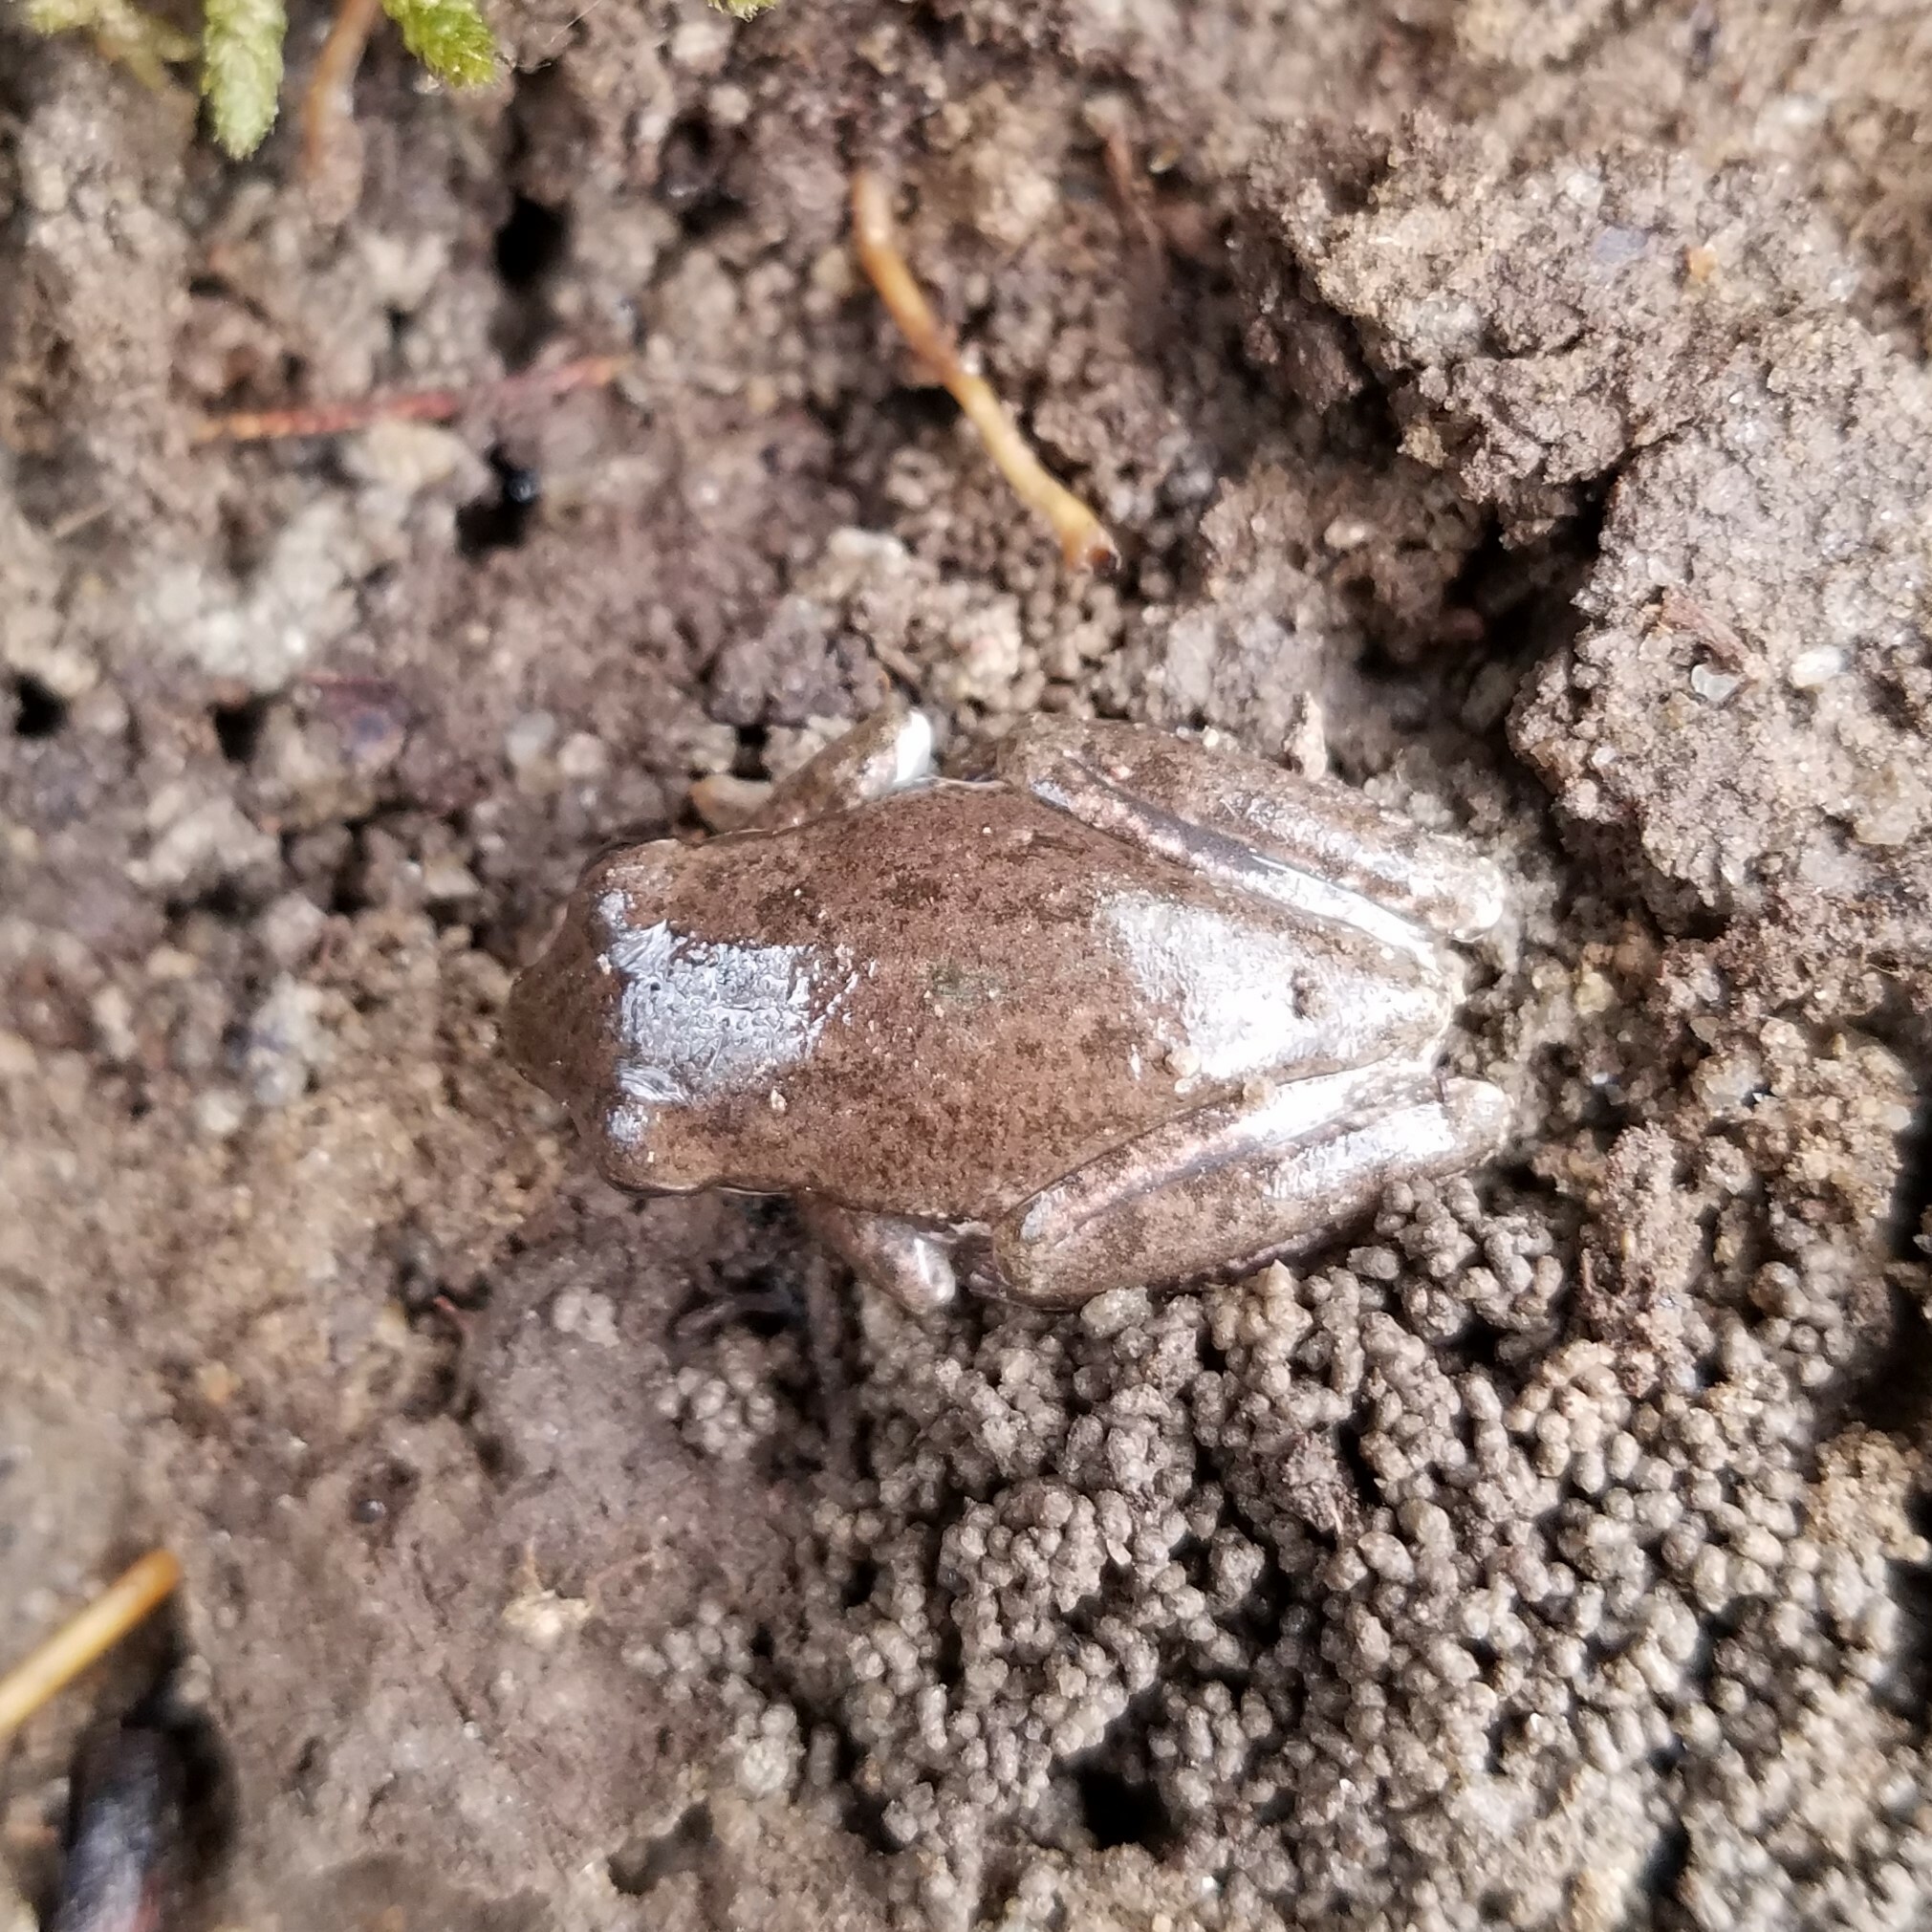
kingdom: Animalia
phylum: Chordata
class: Amphibia
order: Anura
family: Hylidae
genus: Dryophytes
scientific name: Dryophytes squirellus
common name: Squirrel treefrog
